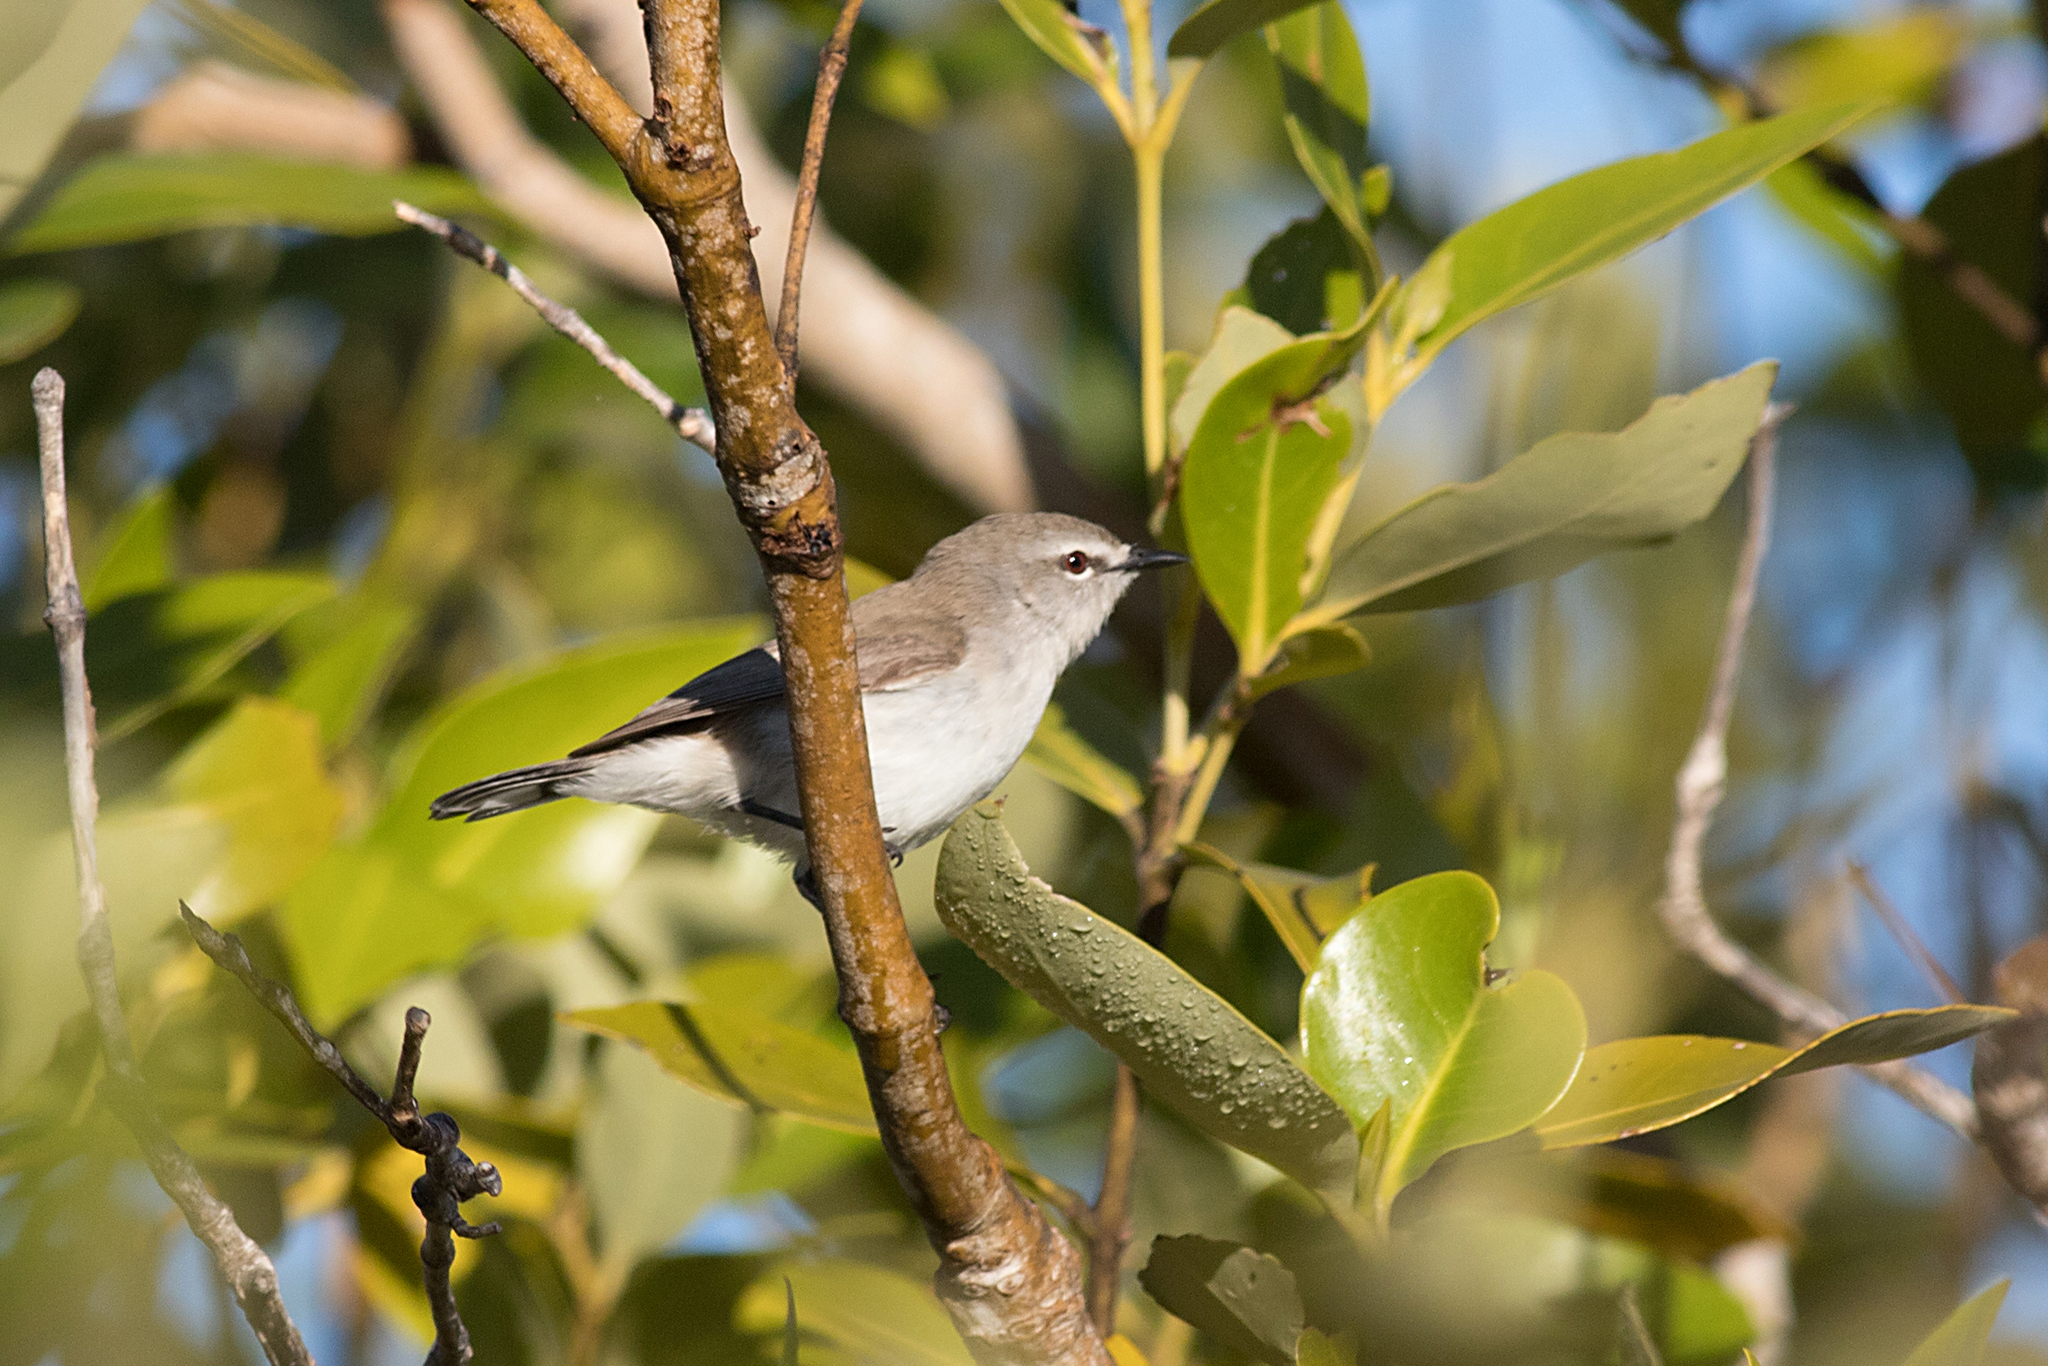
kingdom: Animalia
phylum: Chordata
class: Aves
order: Passeriformes
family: Acanthizidae
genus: Gerygone
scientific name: Gerygone levigaster
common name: Mangrove gerygone
